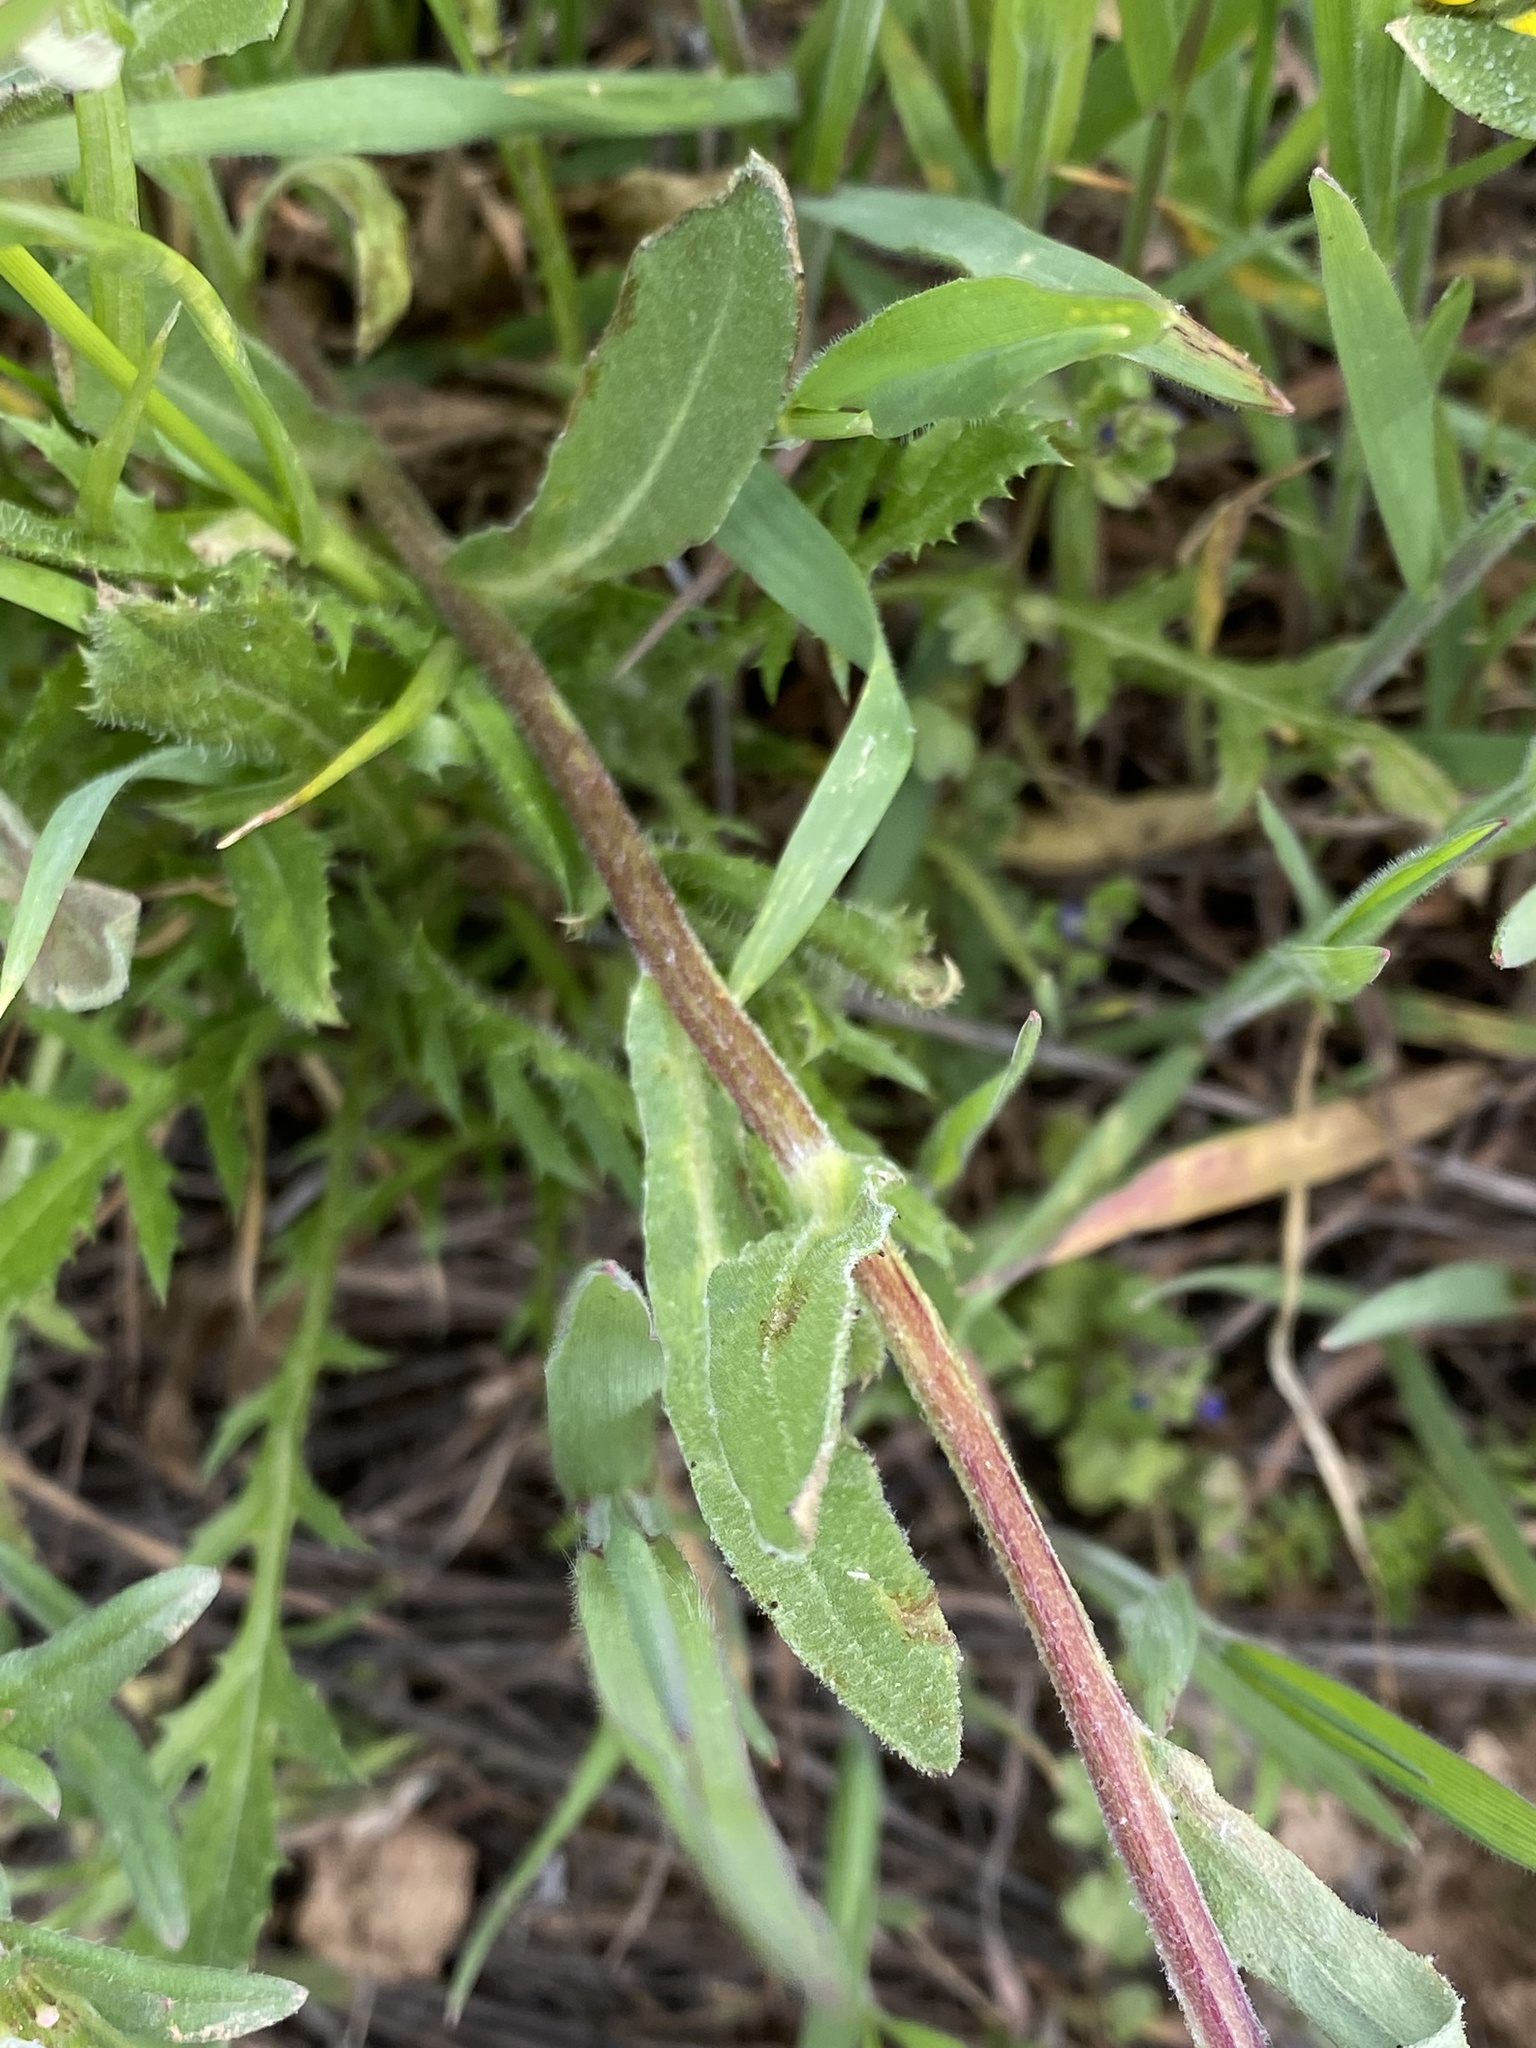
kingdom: Plantae
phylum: Tracheophyta
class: Magnoliopsida
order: Asterales
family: Asteraceae
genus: Calendula
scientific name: Calendula arvensis
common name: Field marigold
